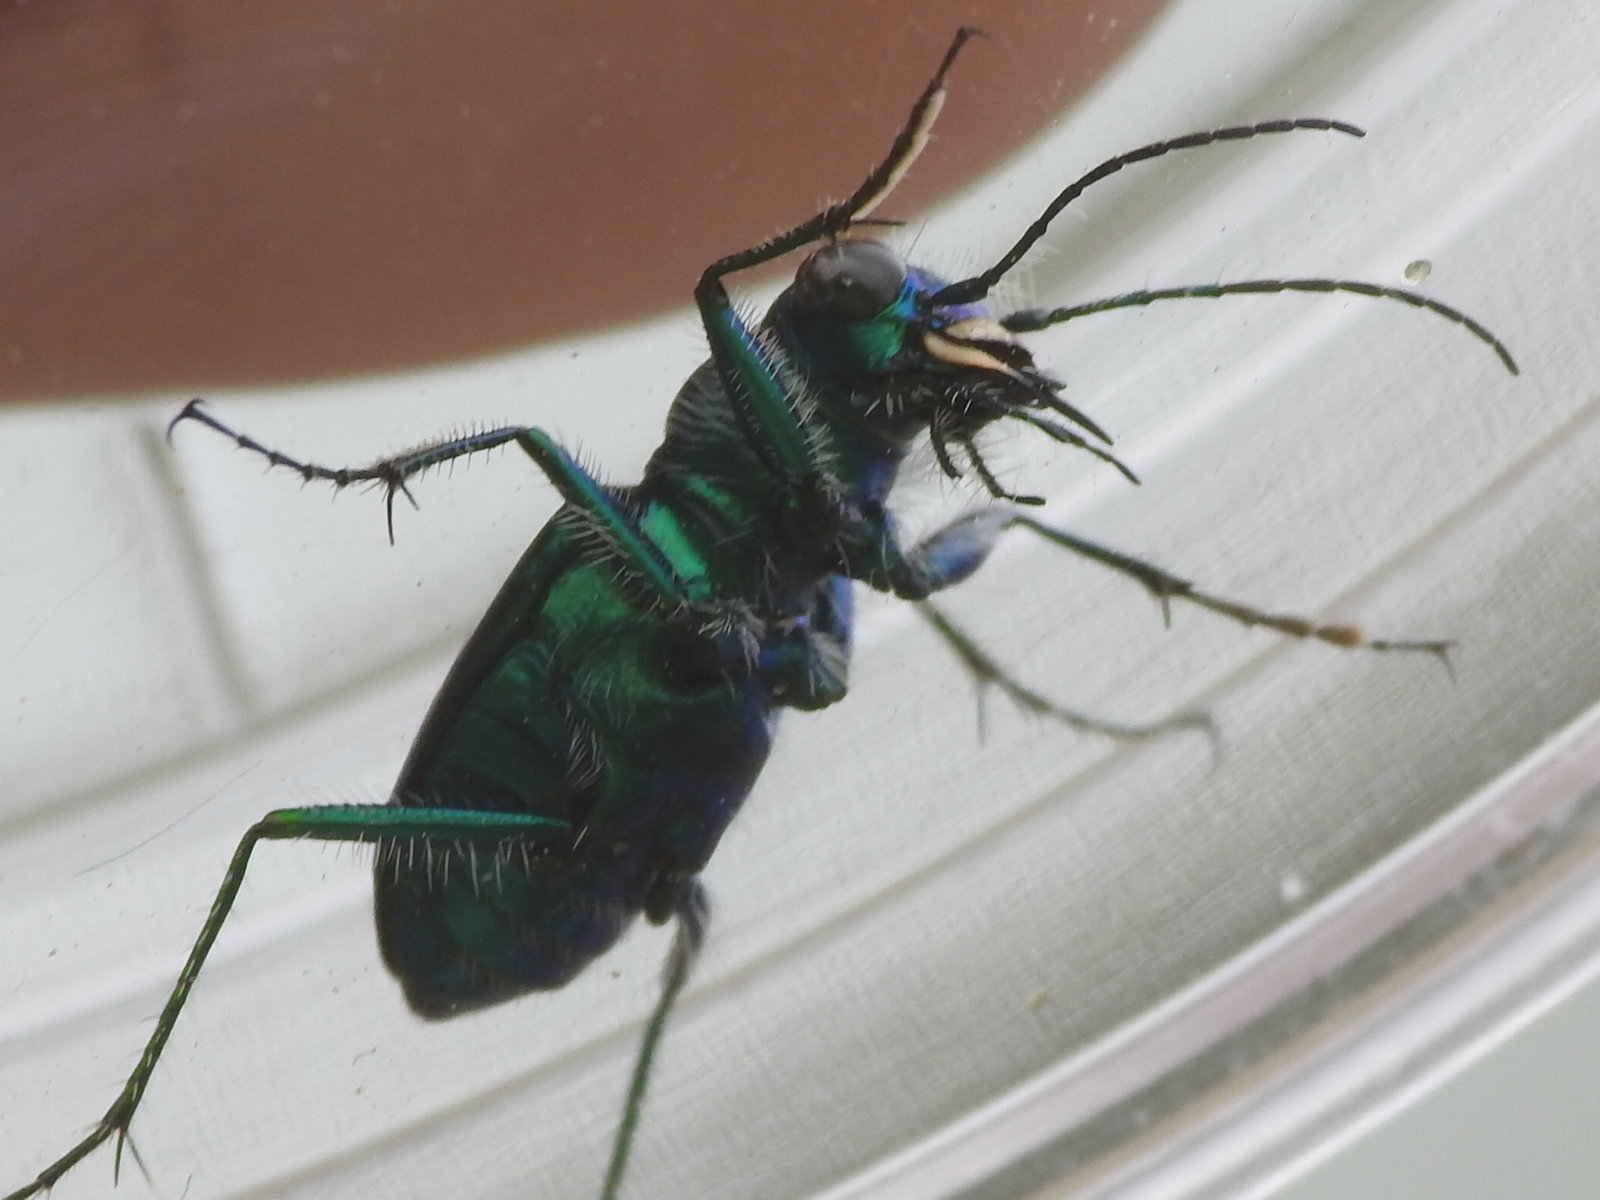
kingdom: Animalia
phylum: Arthropoda
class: Insecta
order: Coleoptera
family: Carabidae
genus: Cicindela
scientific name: Cicindela scutellaris
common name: Festive tiger beetle
